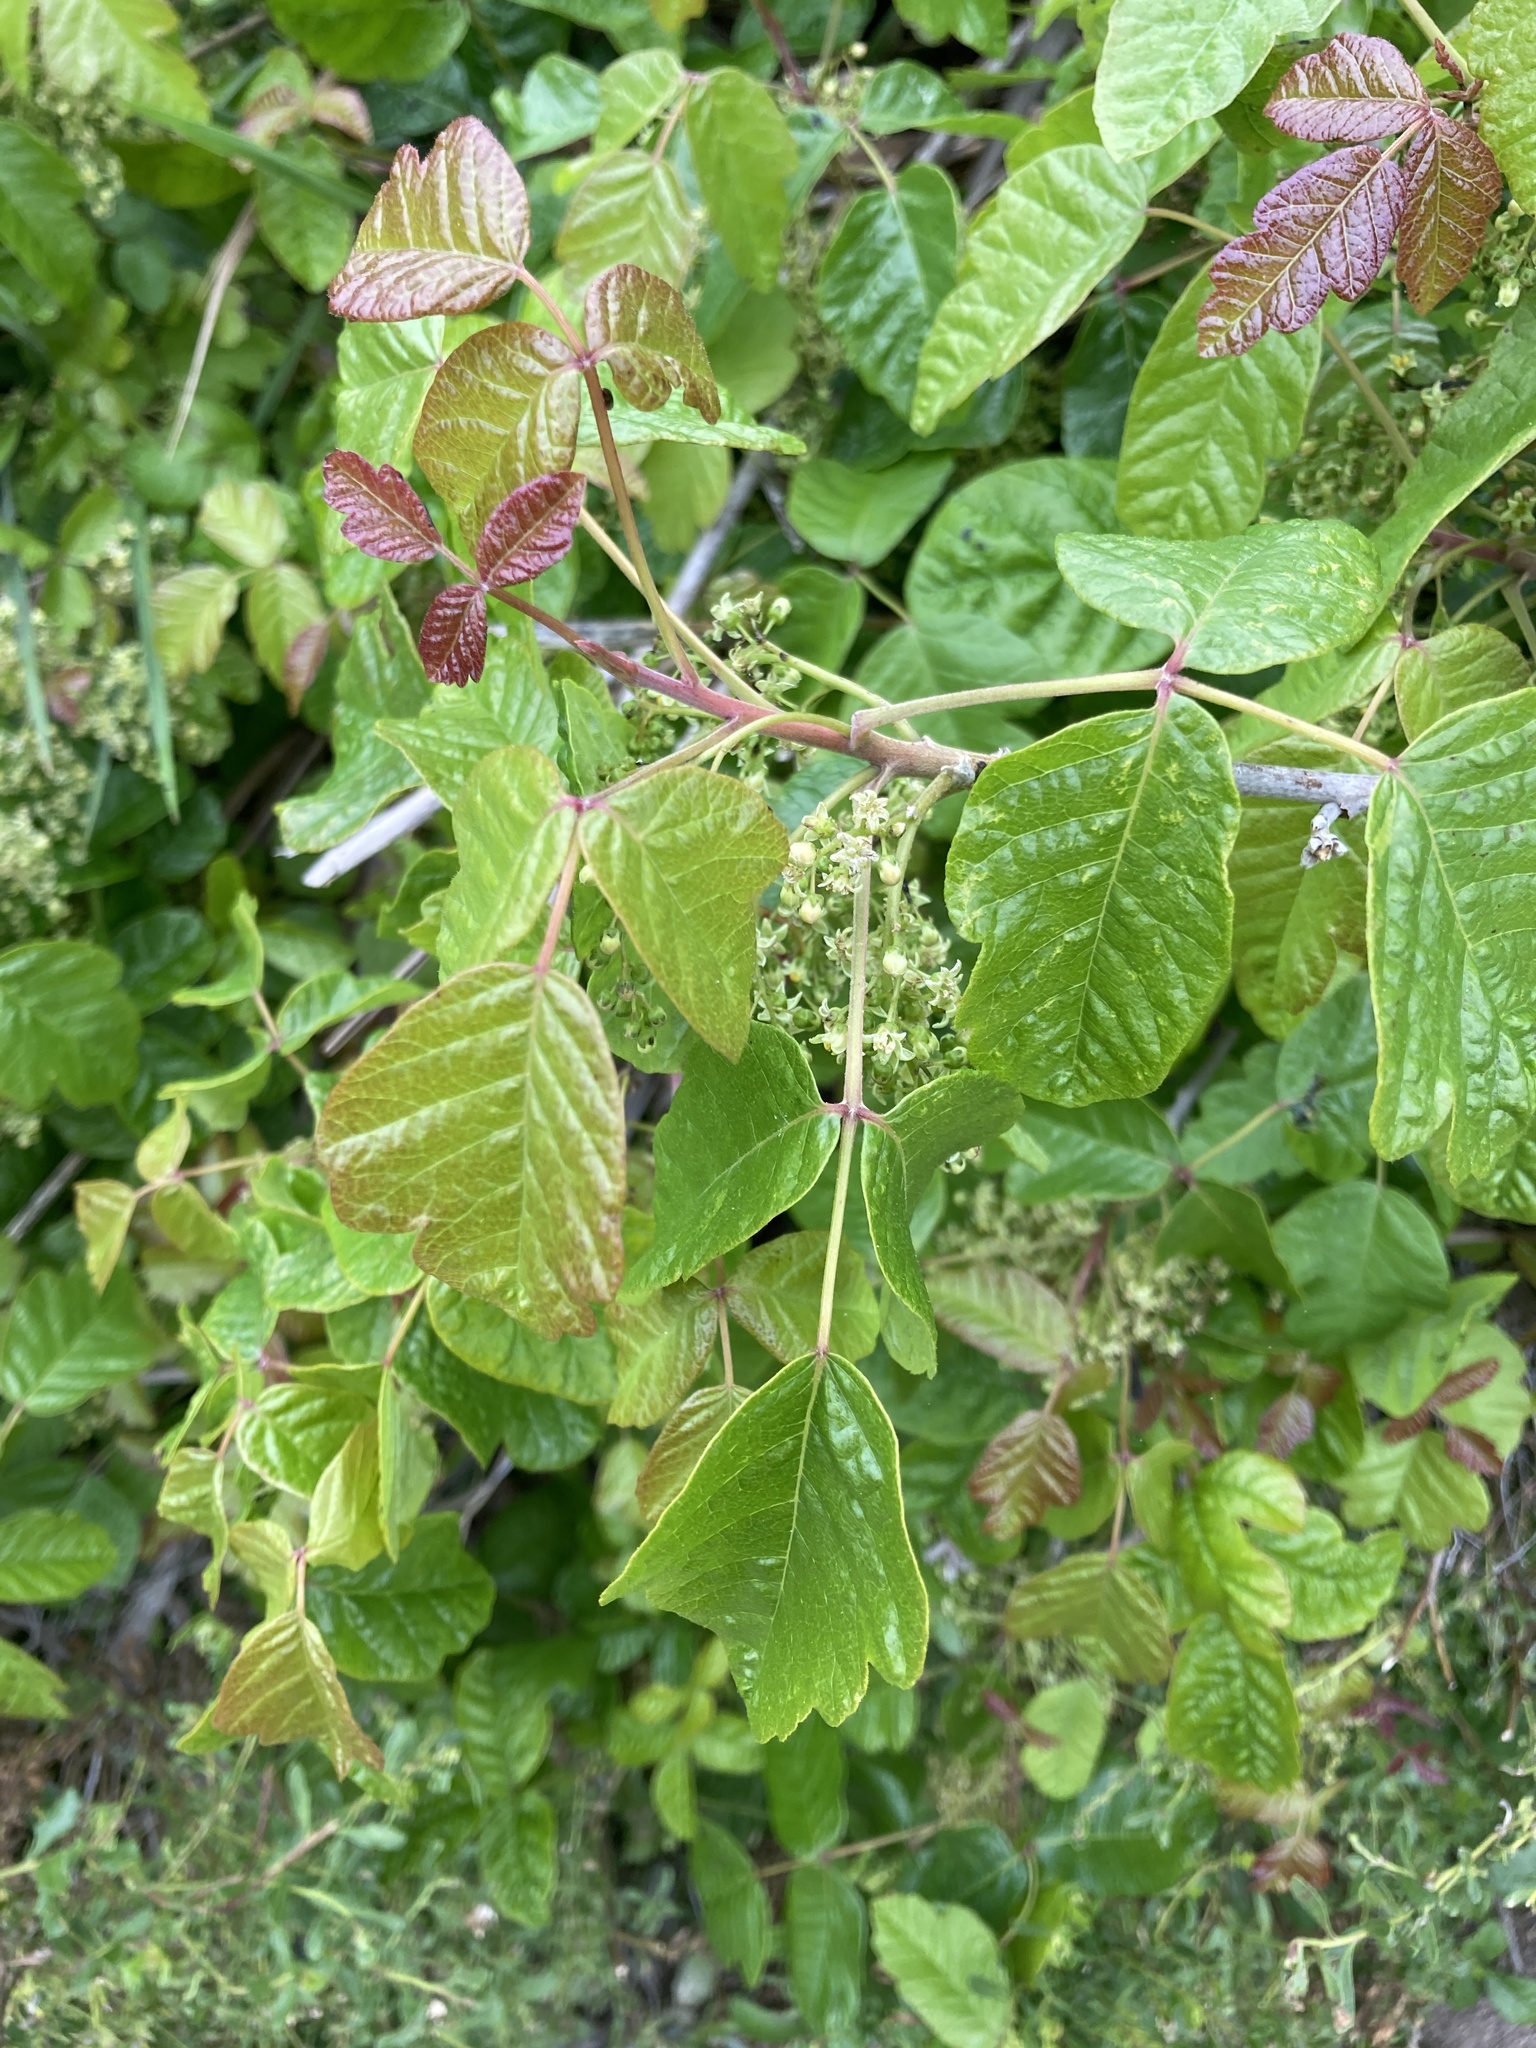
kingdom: Plantae
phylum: Tracheophyta
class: Magnoliopsida
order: Sapindales
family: Anacardiaceae
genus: Toxicodendron
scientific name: Toxicodendron diversilobum
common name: Pacific poison-oak
